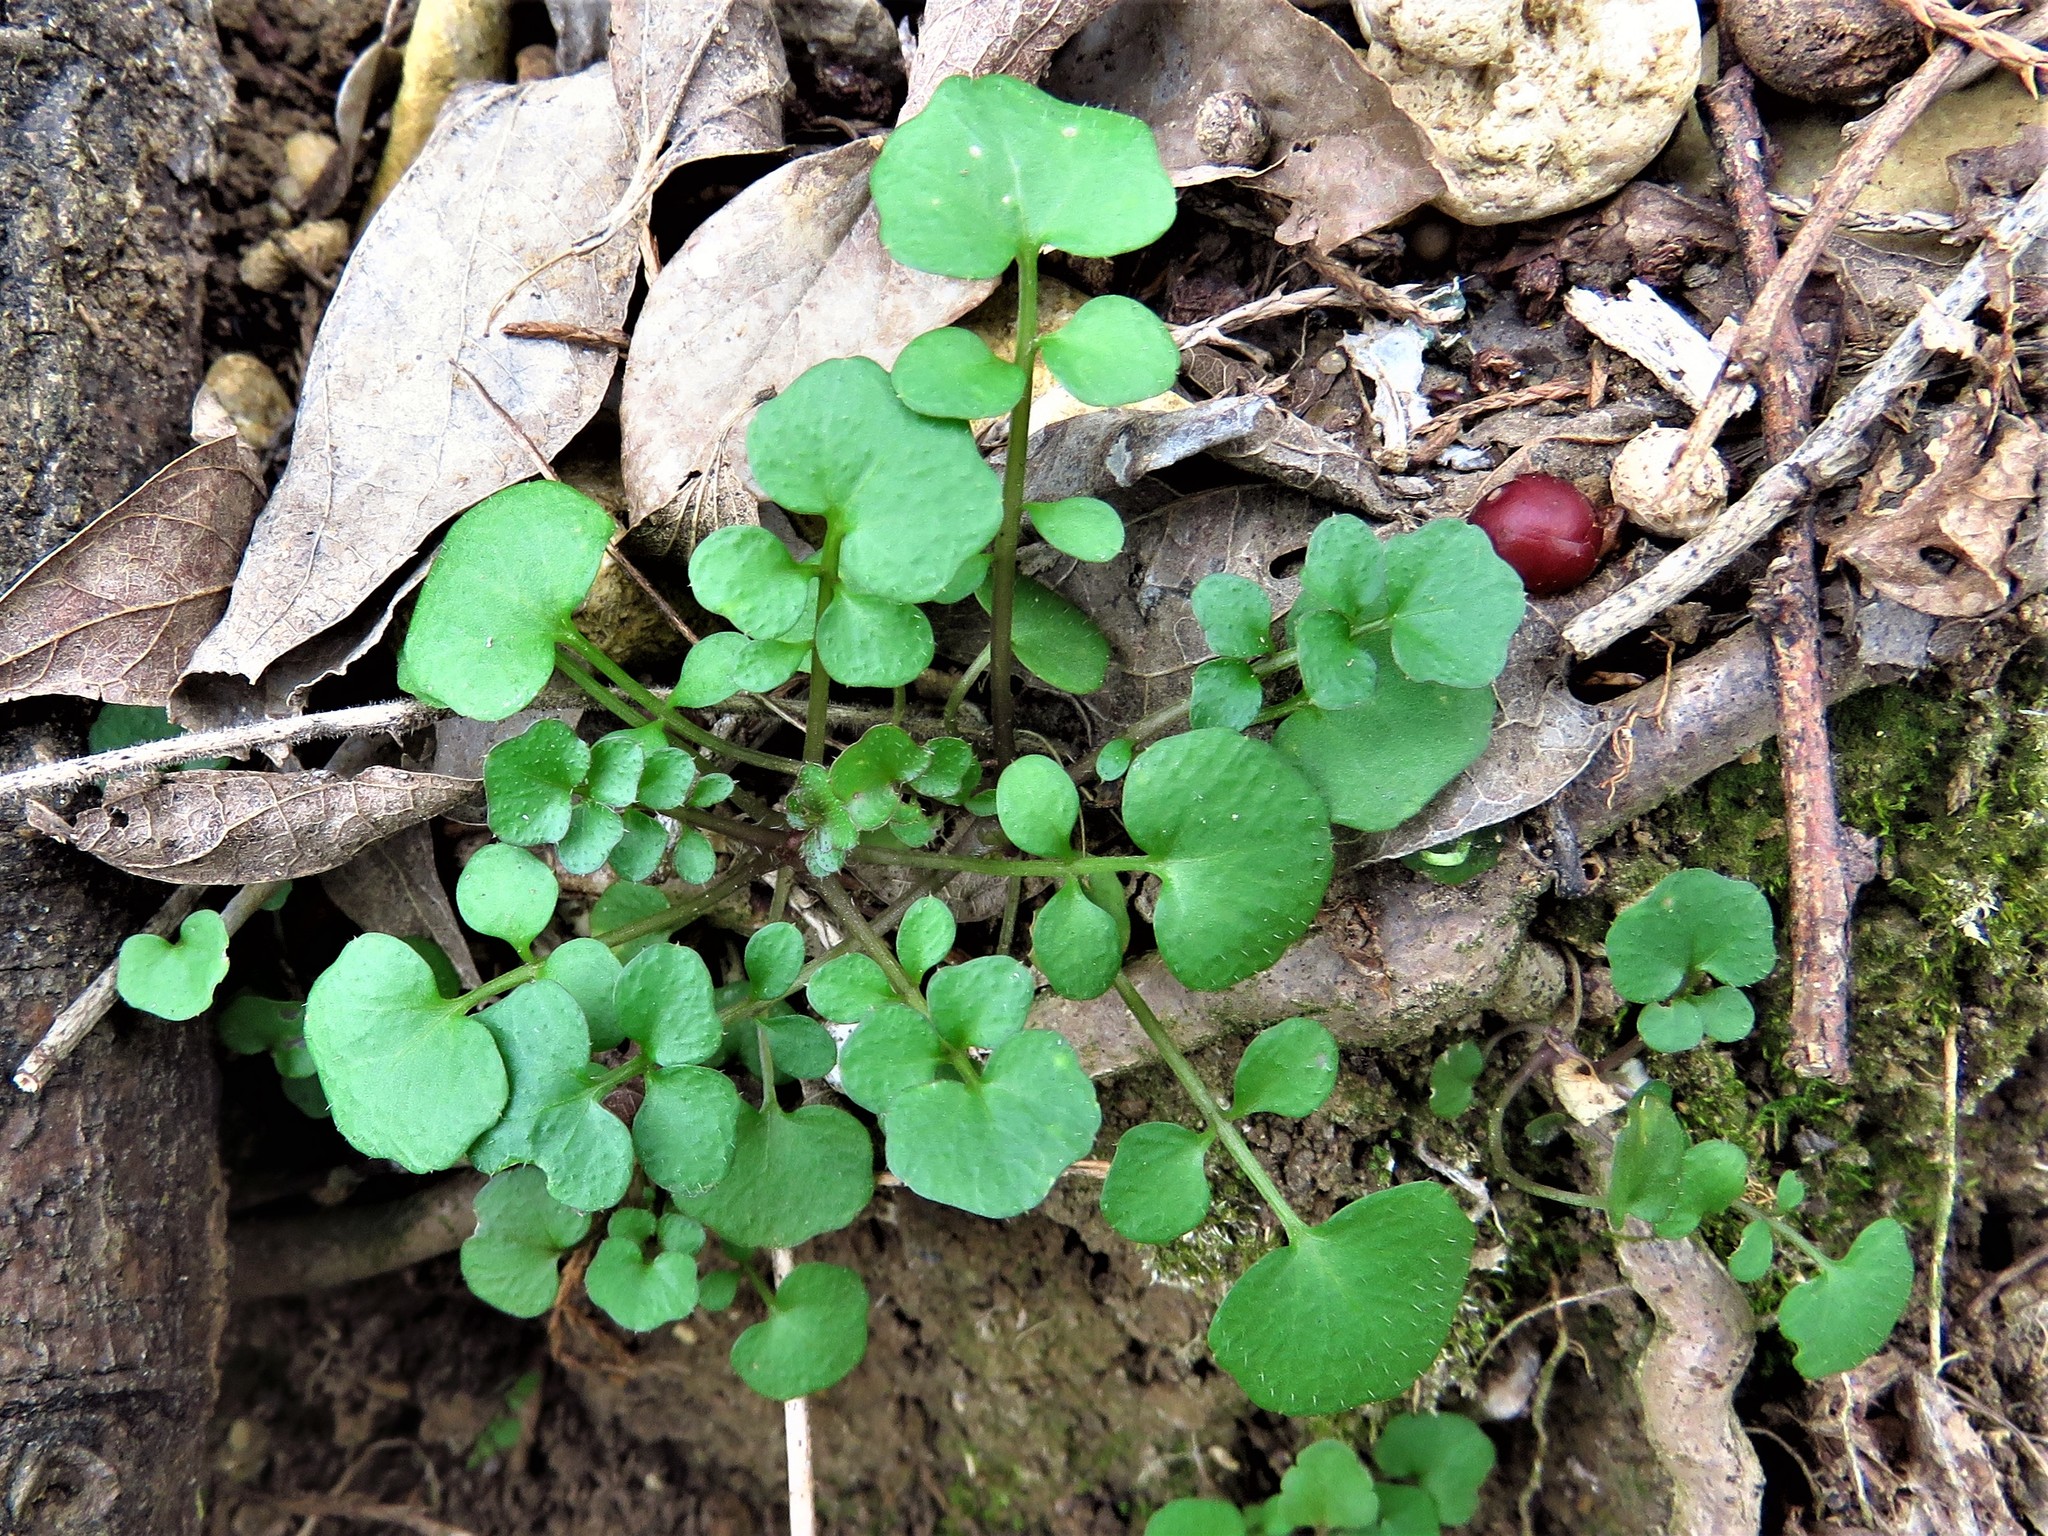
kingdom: Plantae
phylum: Tracheophyta
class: Magnoliopsida
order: Brassicales
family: Brassicaceae
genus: Cardamine
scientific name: Cardamine hirsuta
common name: Hairy bittercress
